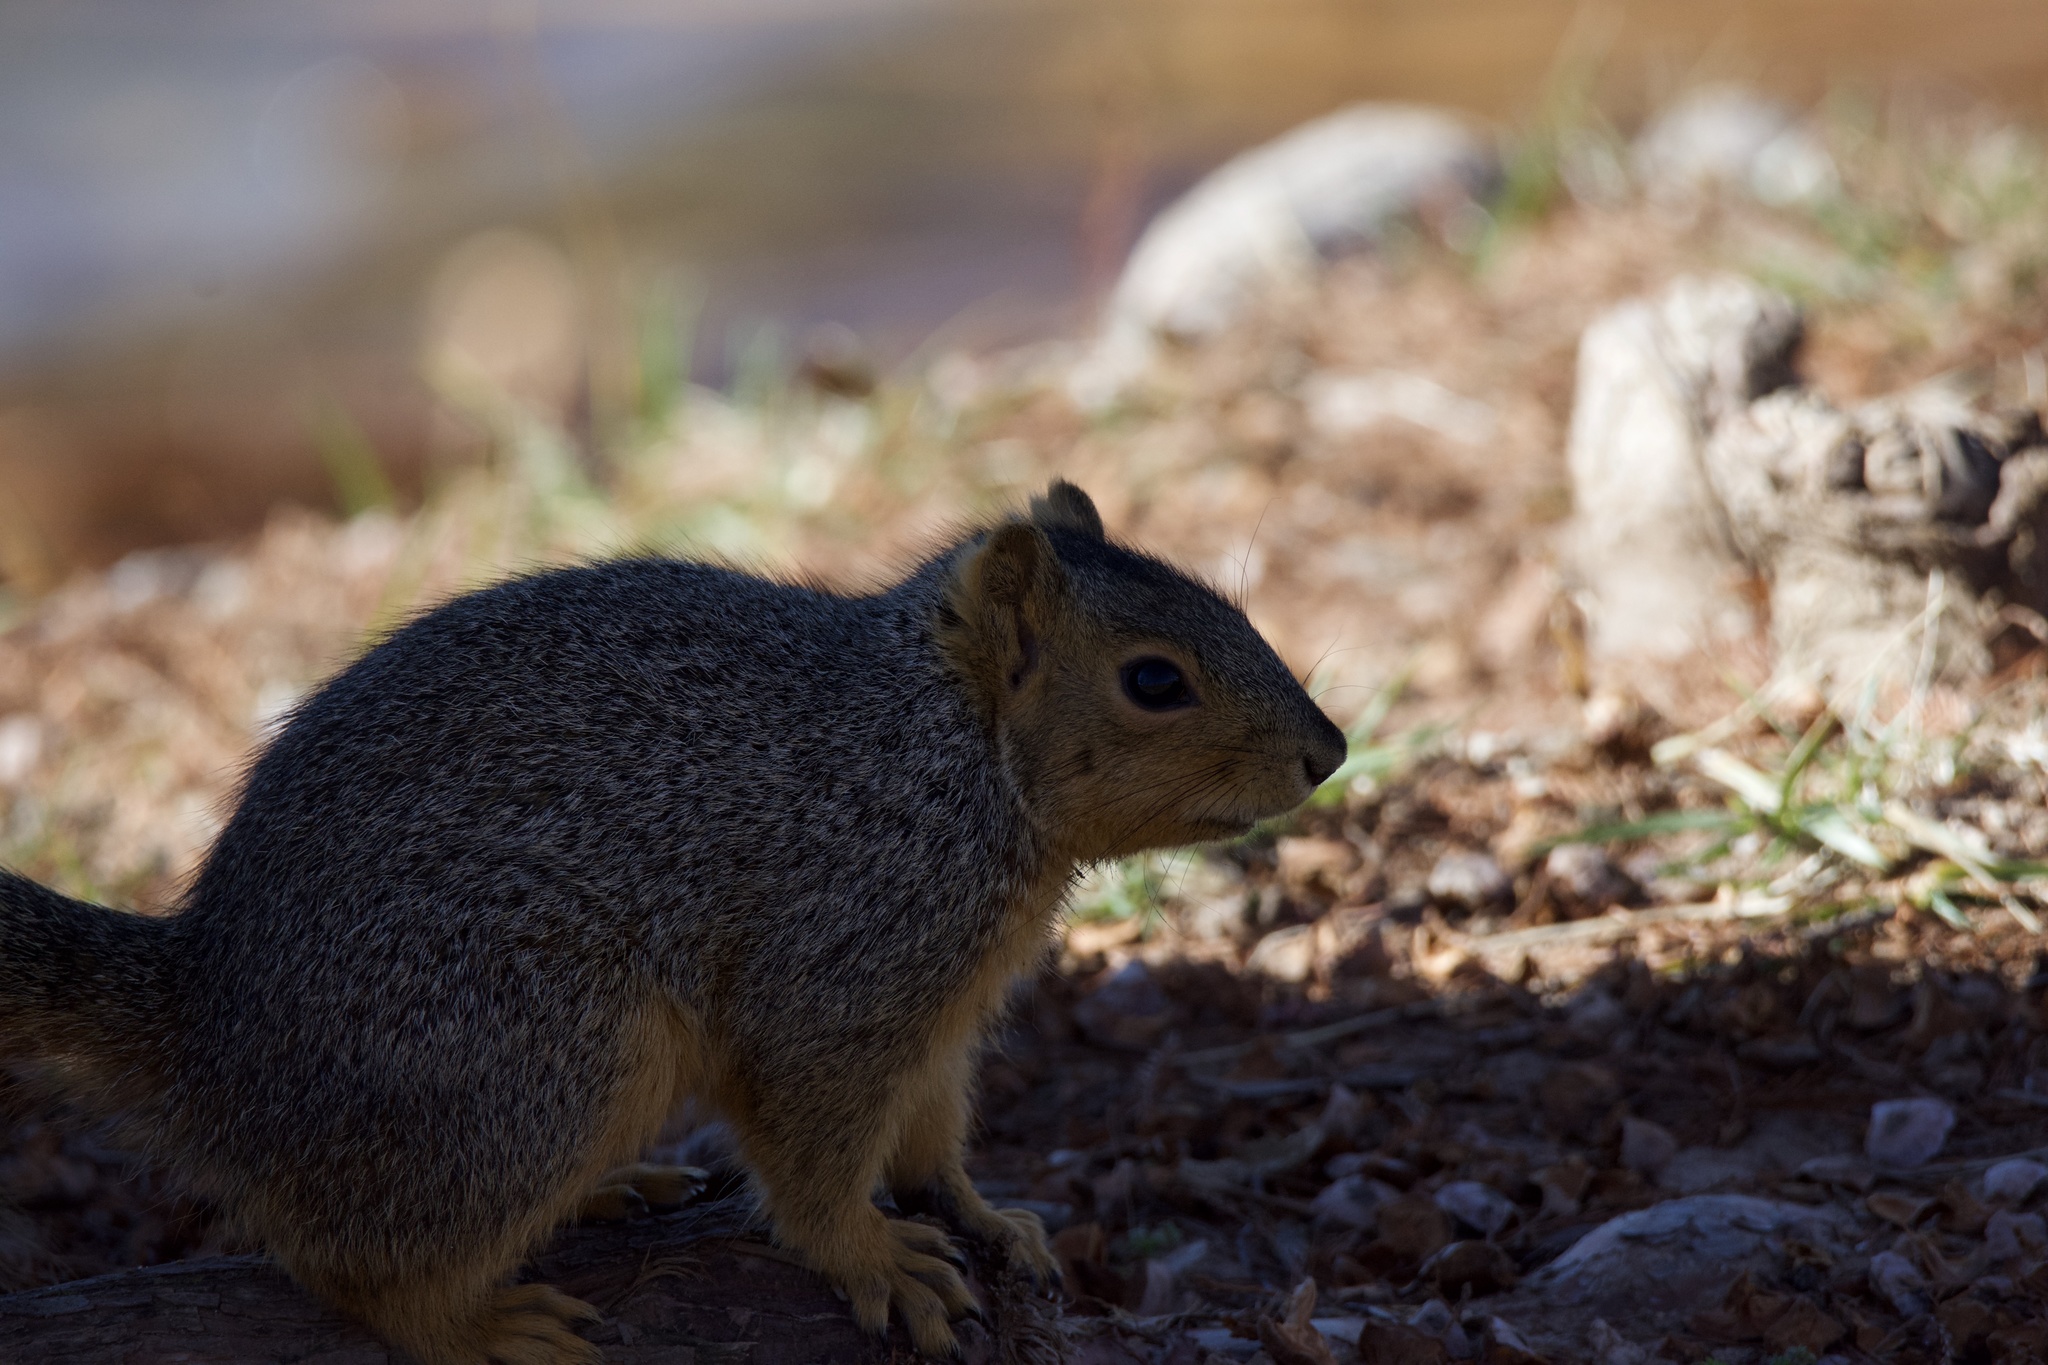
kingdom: Animalia
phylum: Chordata
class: Mammalia
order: Rodentia
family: Sciuridae
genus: Sciurus
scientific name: Sciurus niger
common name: Fox squirrel
